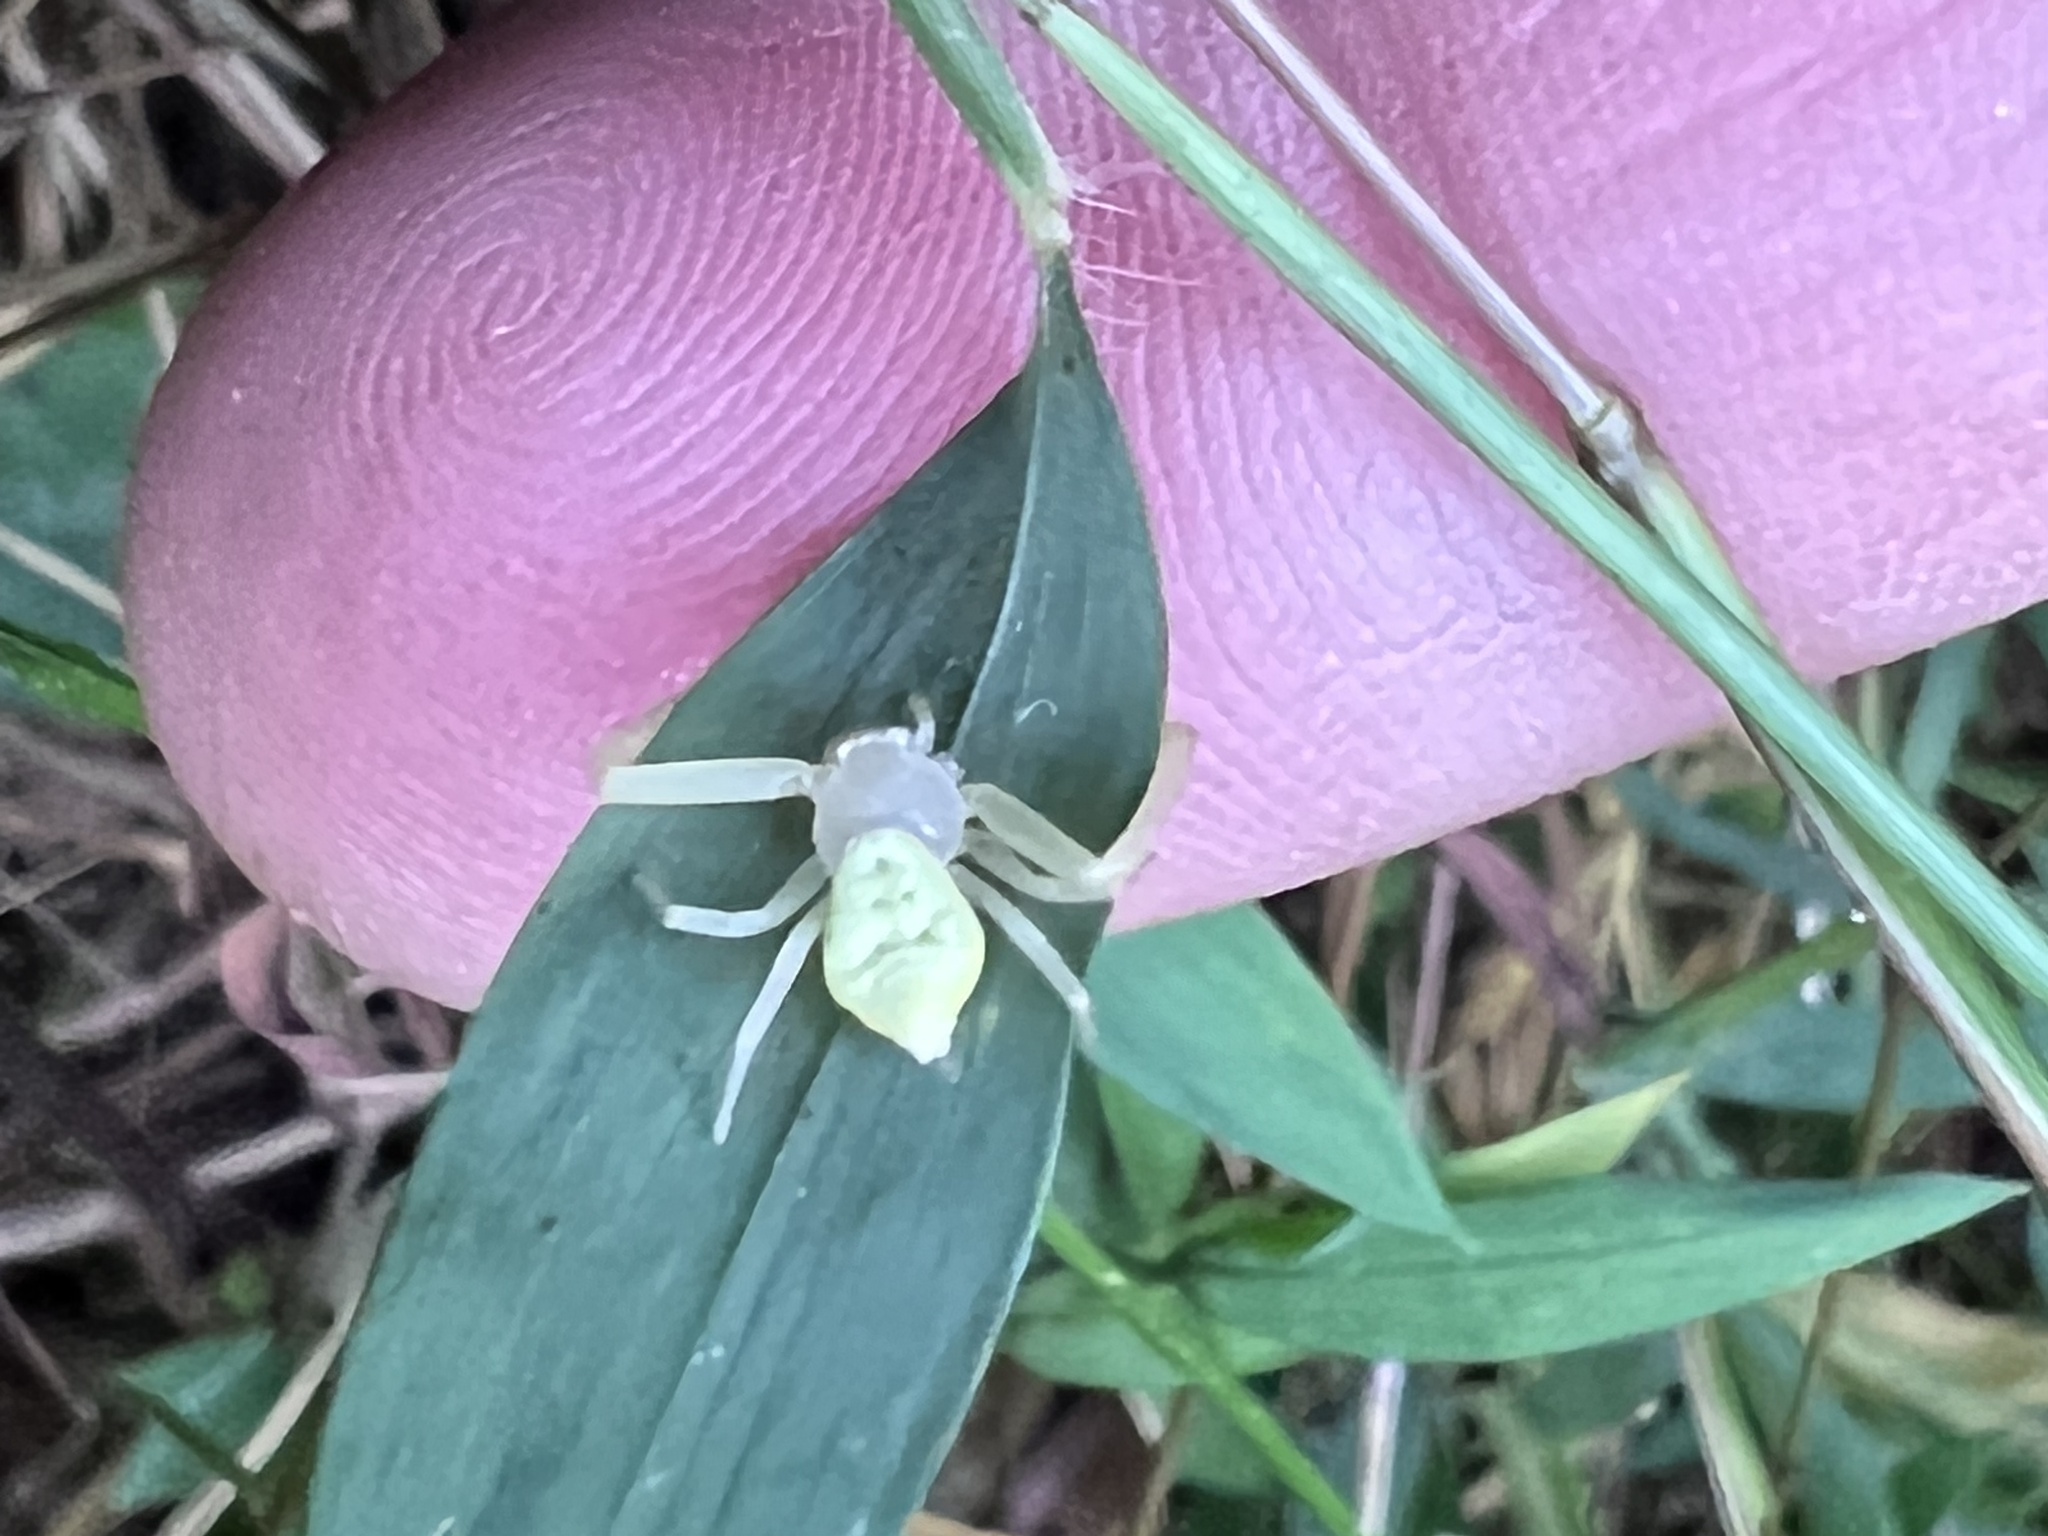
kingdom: Animalia
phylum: Arthropoda
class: Arachnida
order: Araneae
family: Thomisidae
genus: Misumessus
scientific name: Misumessus oblongus
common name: American green crab spider
